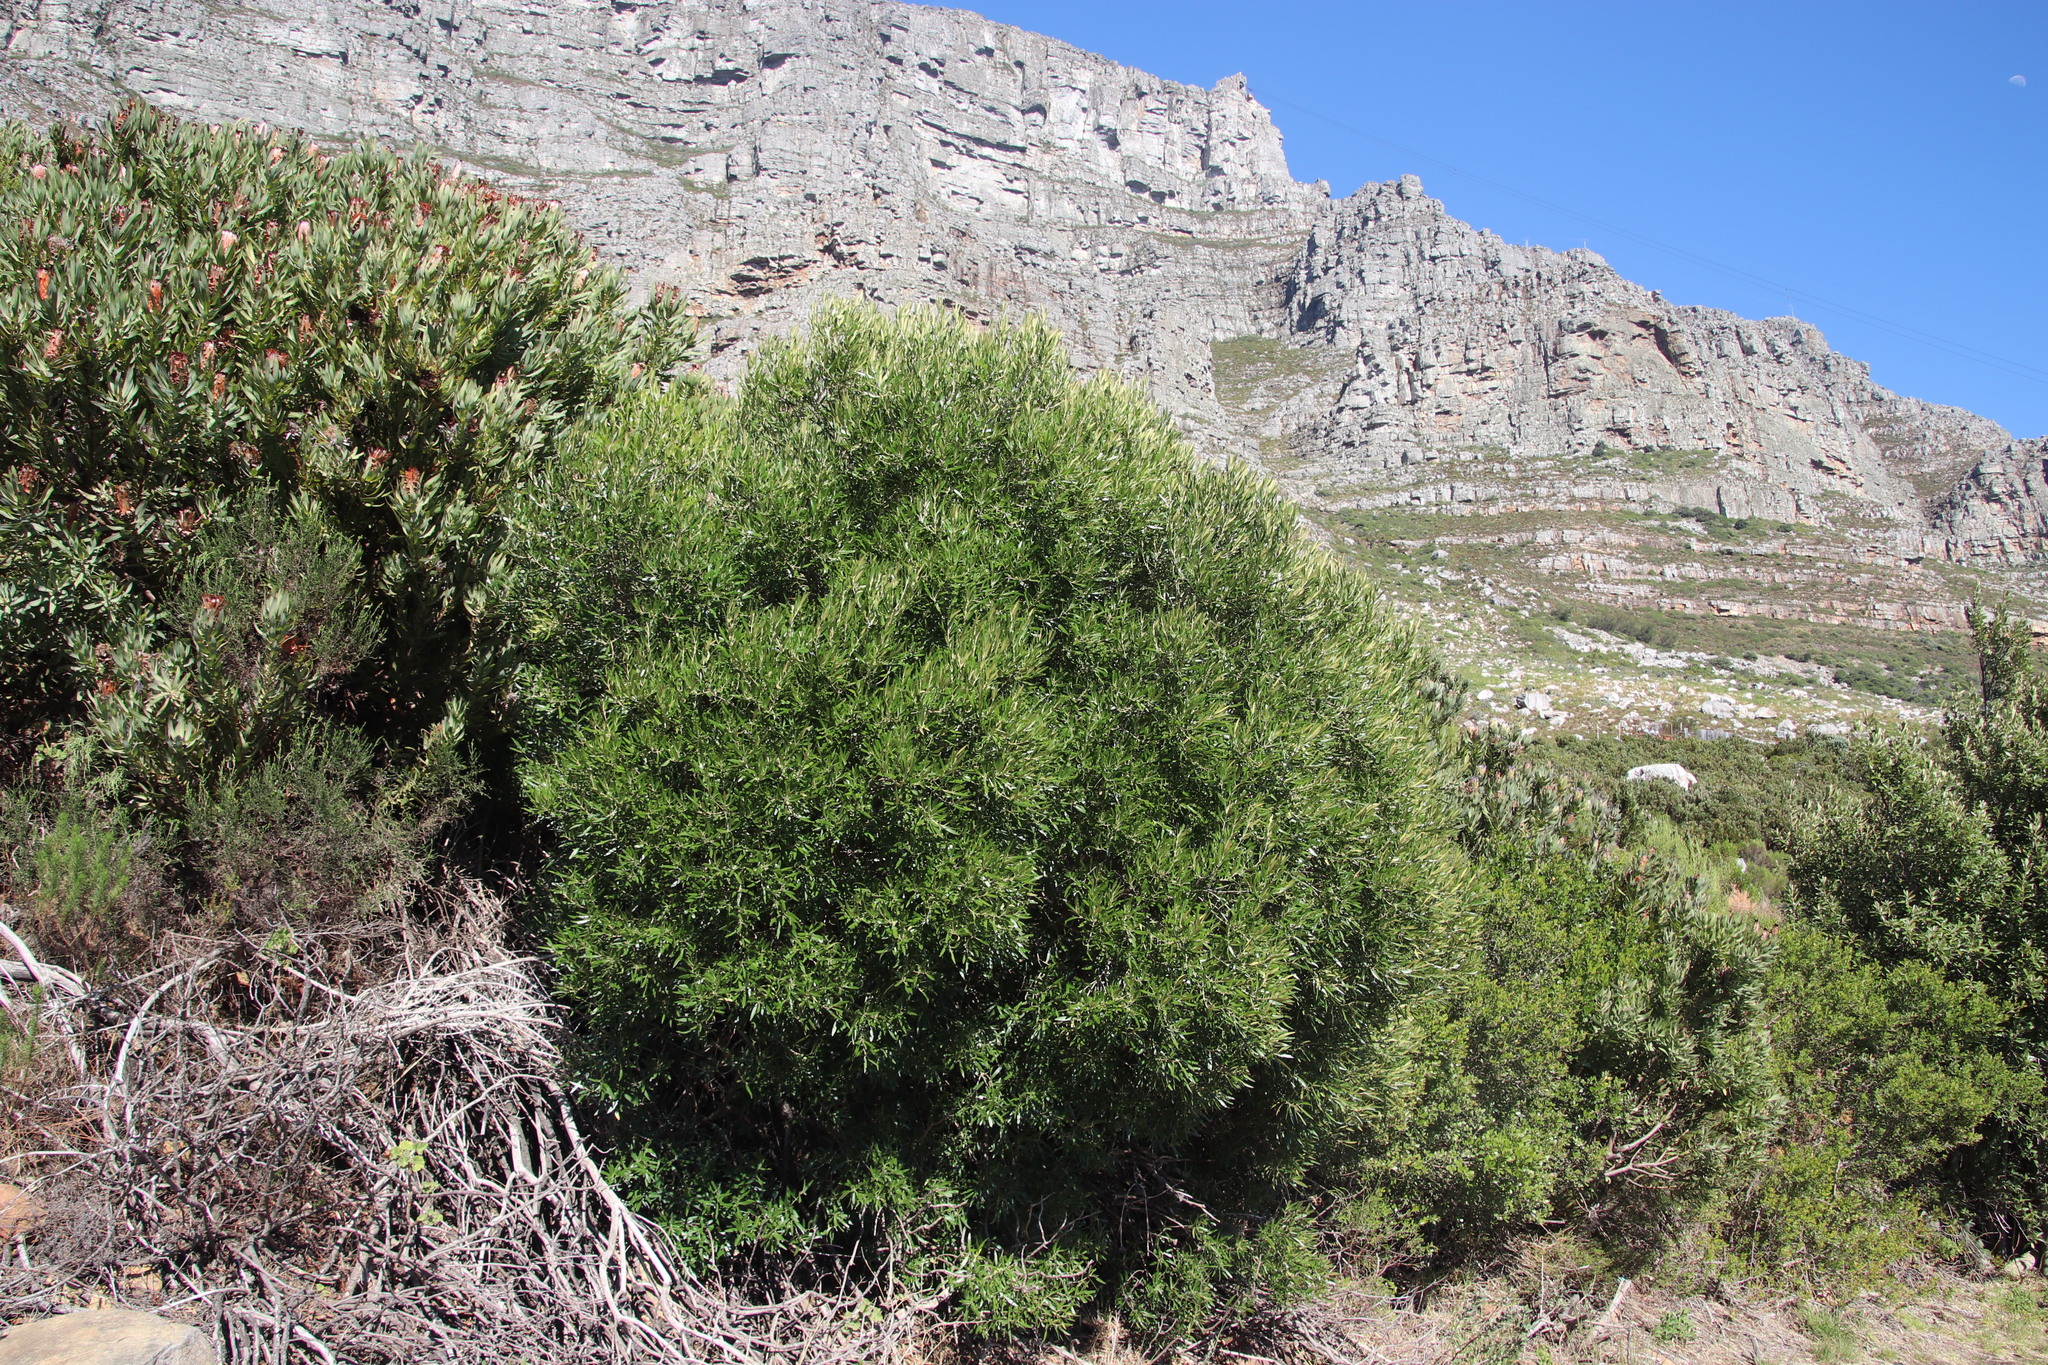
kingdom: Plantae
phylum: Tracheophyta
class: Magnoliopsida
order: Lamiales
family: Oleaceae
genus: Olea
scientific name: Olea europaea
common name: Olive
